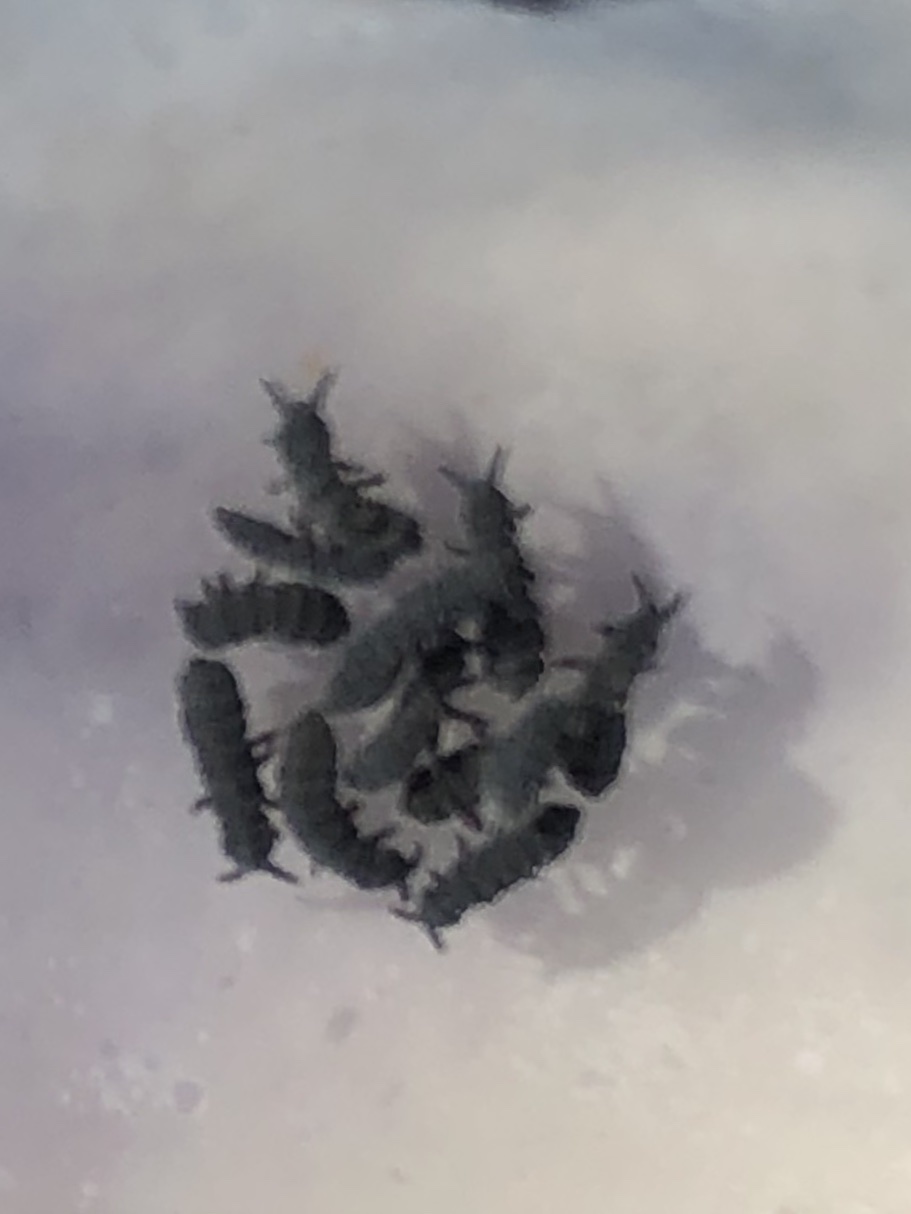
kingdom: Animalia
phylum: Arthropoda
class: Collembola
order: Poduromorpha
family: Neanuridae
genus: Anurida
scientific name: Anurida maritima
